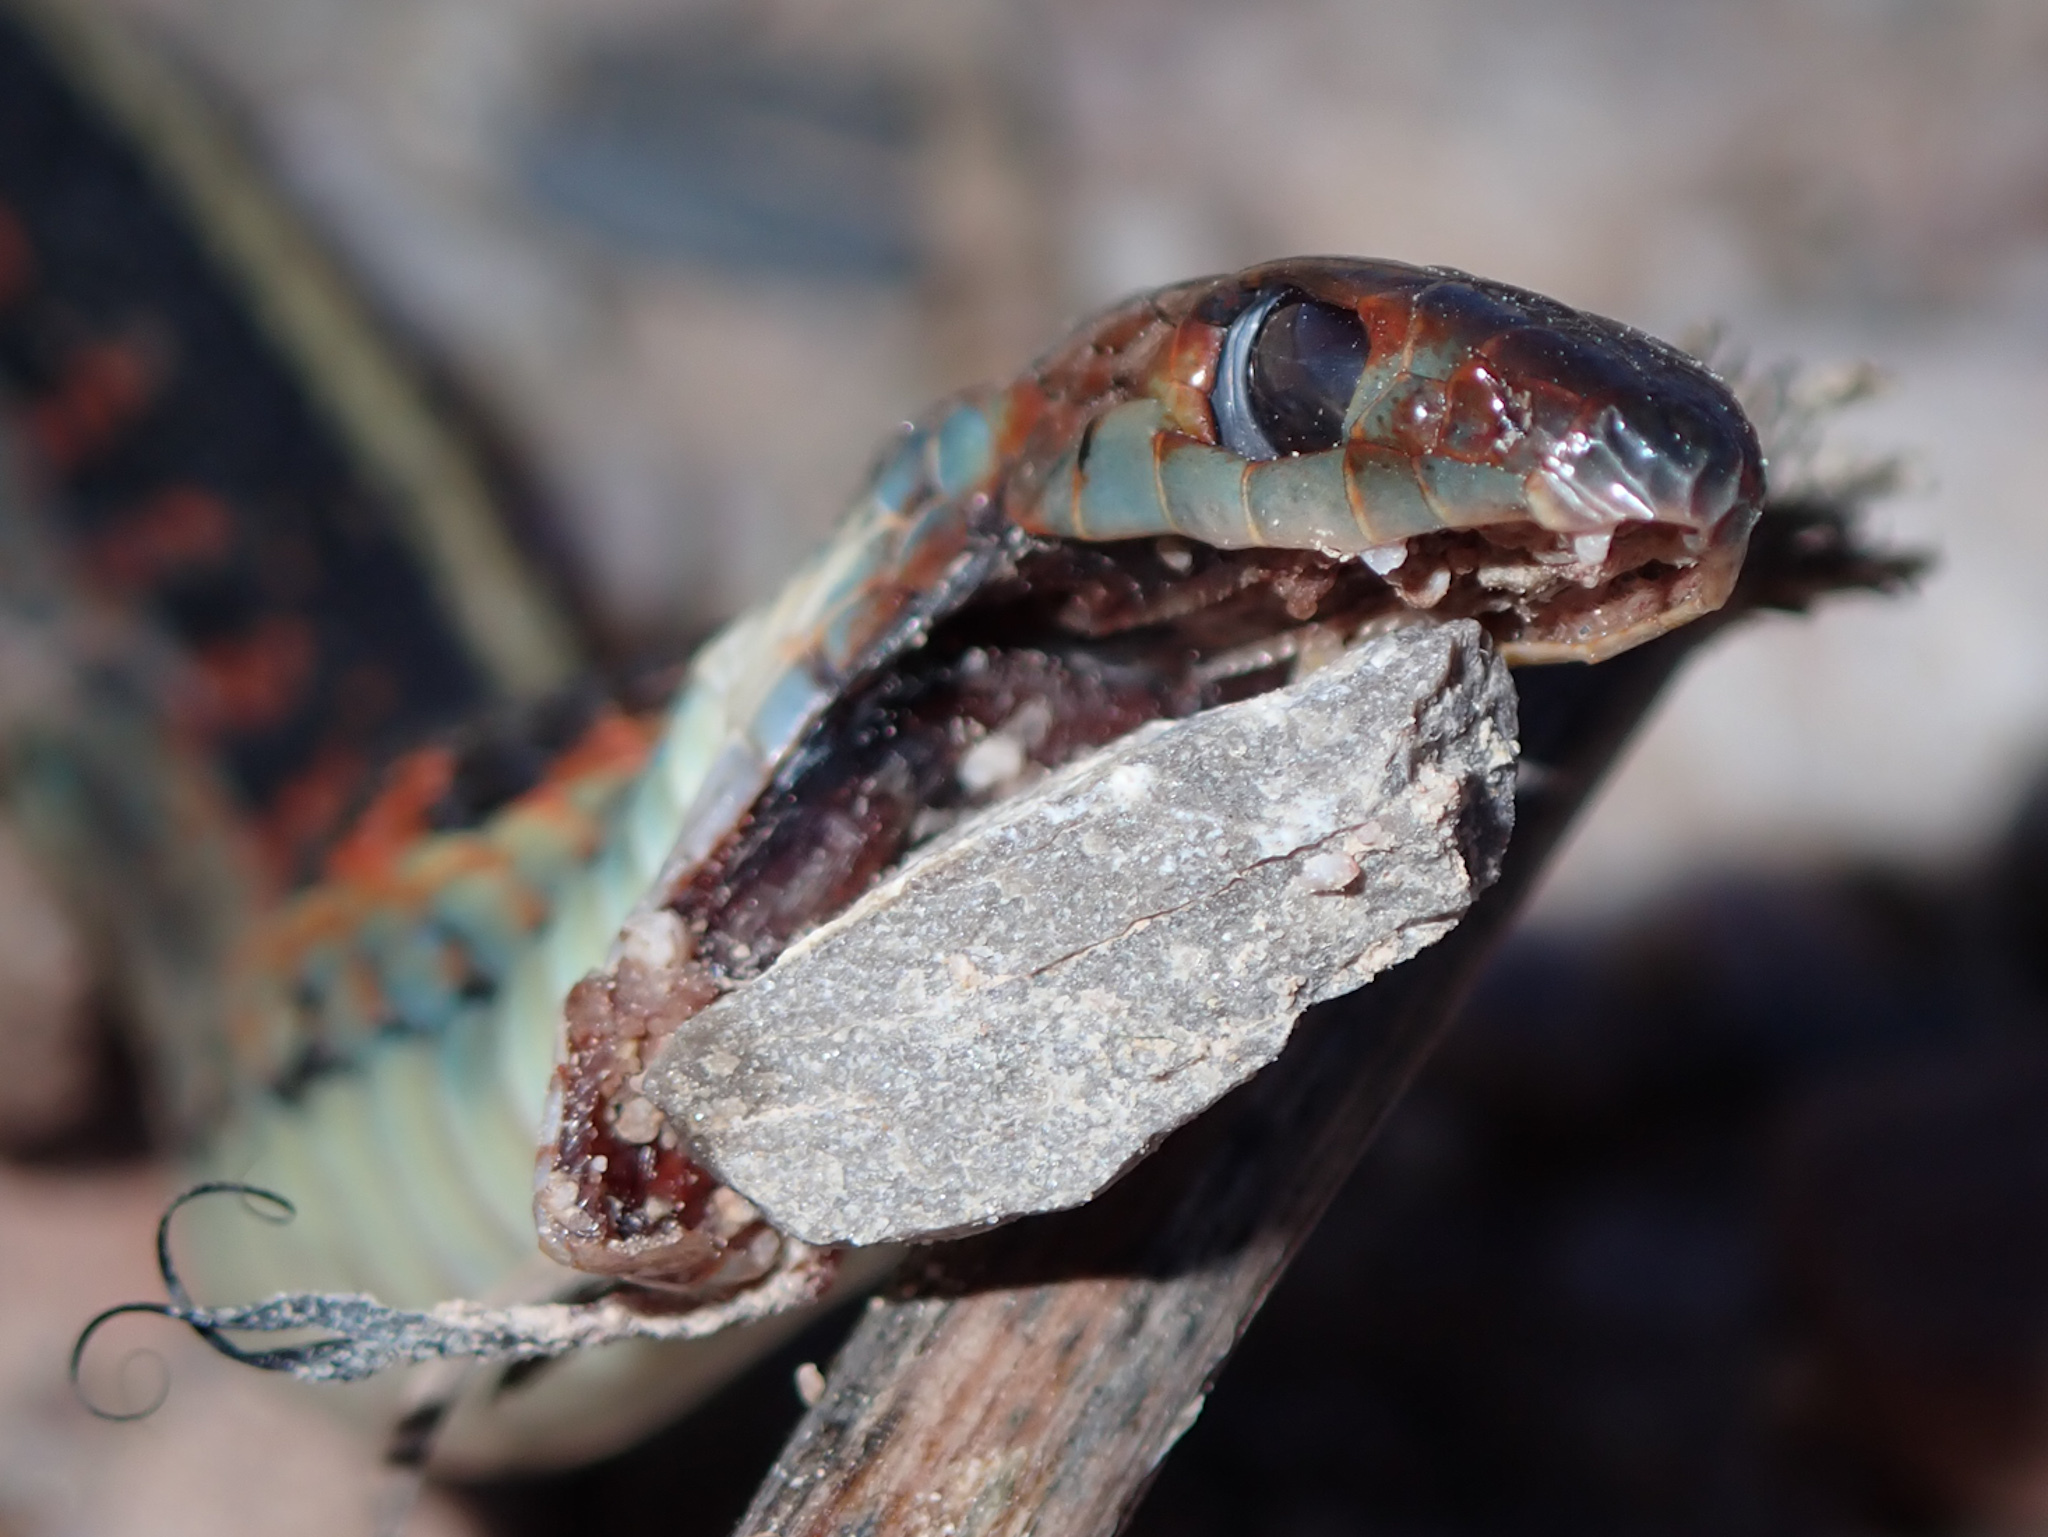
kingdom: Animalia
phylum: Chordata
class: Squamata
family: Colubridae
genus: Thamnophis
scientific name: Thamnophis sirtalis
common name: Common garter snake
